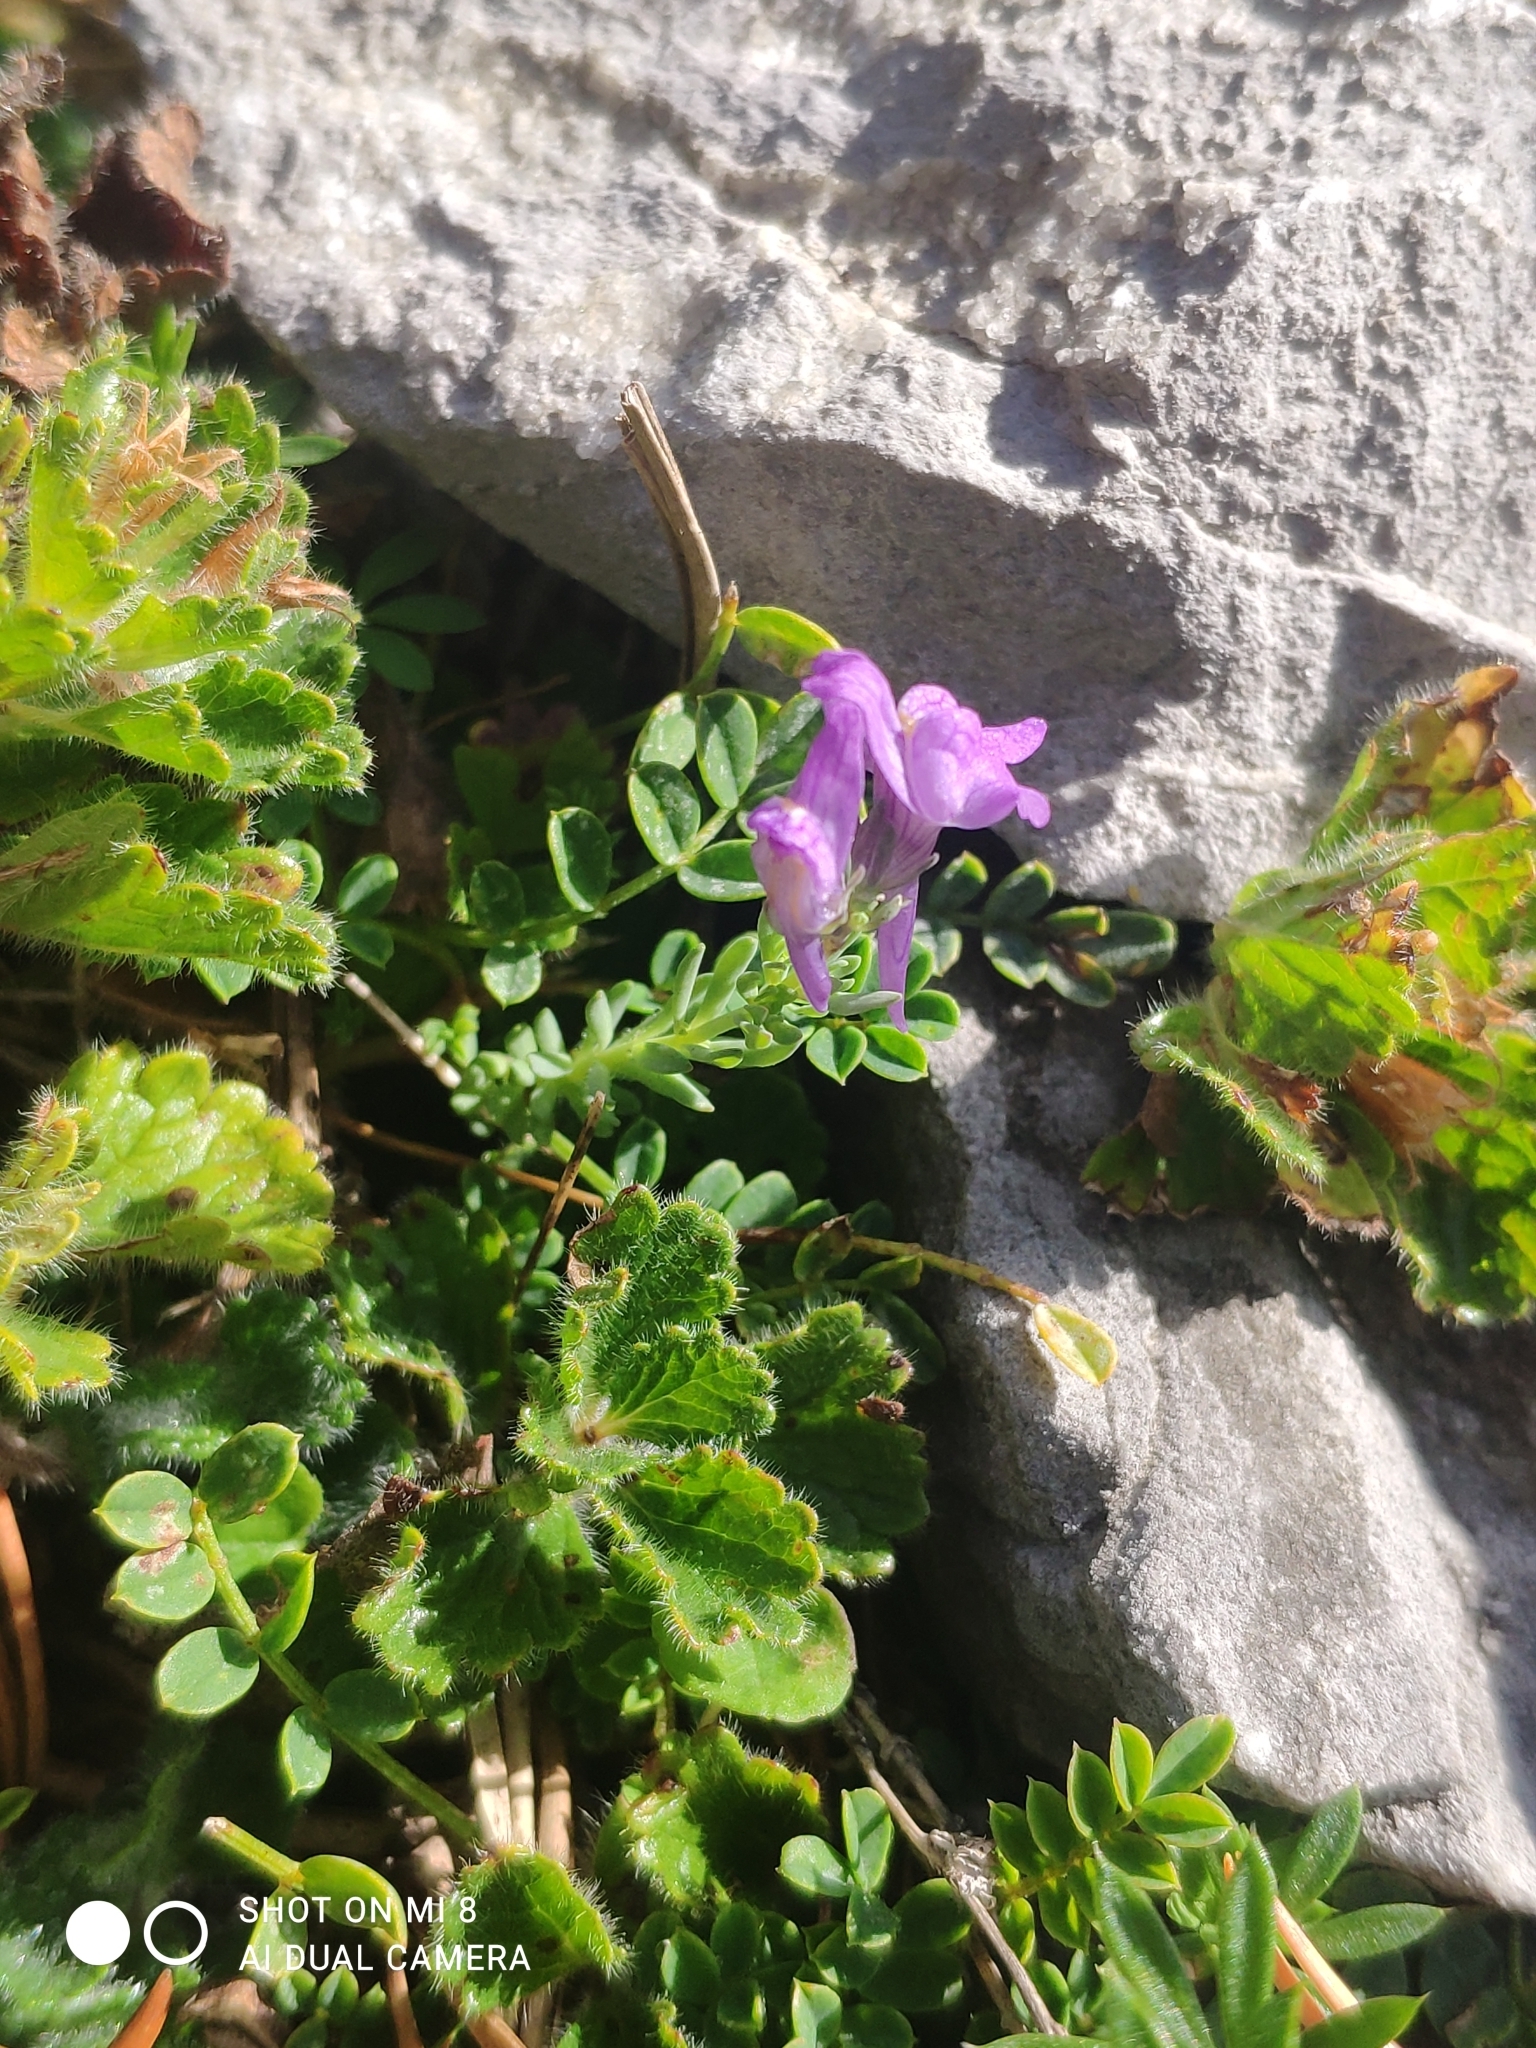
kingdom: Plantae
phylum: Tracheophyta
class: Magnoliopsida
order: Lamiales
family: Plantaginaceae
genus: Linaria
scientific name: Linaria alpina
